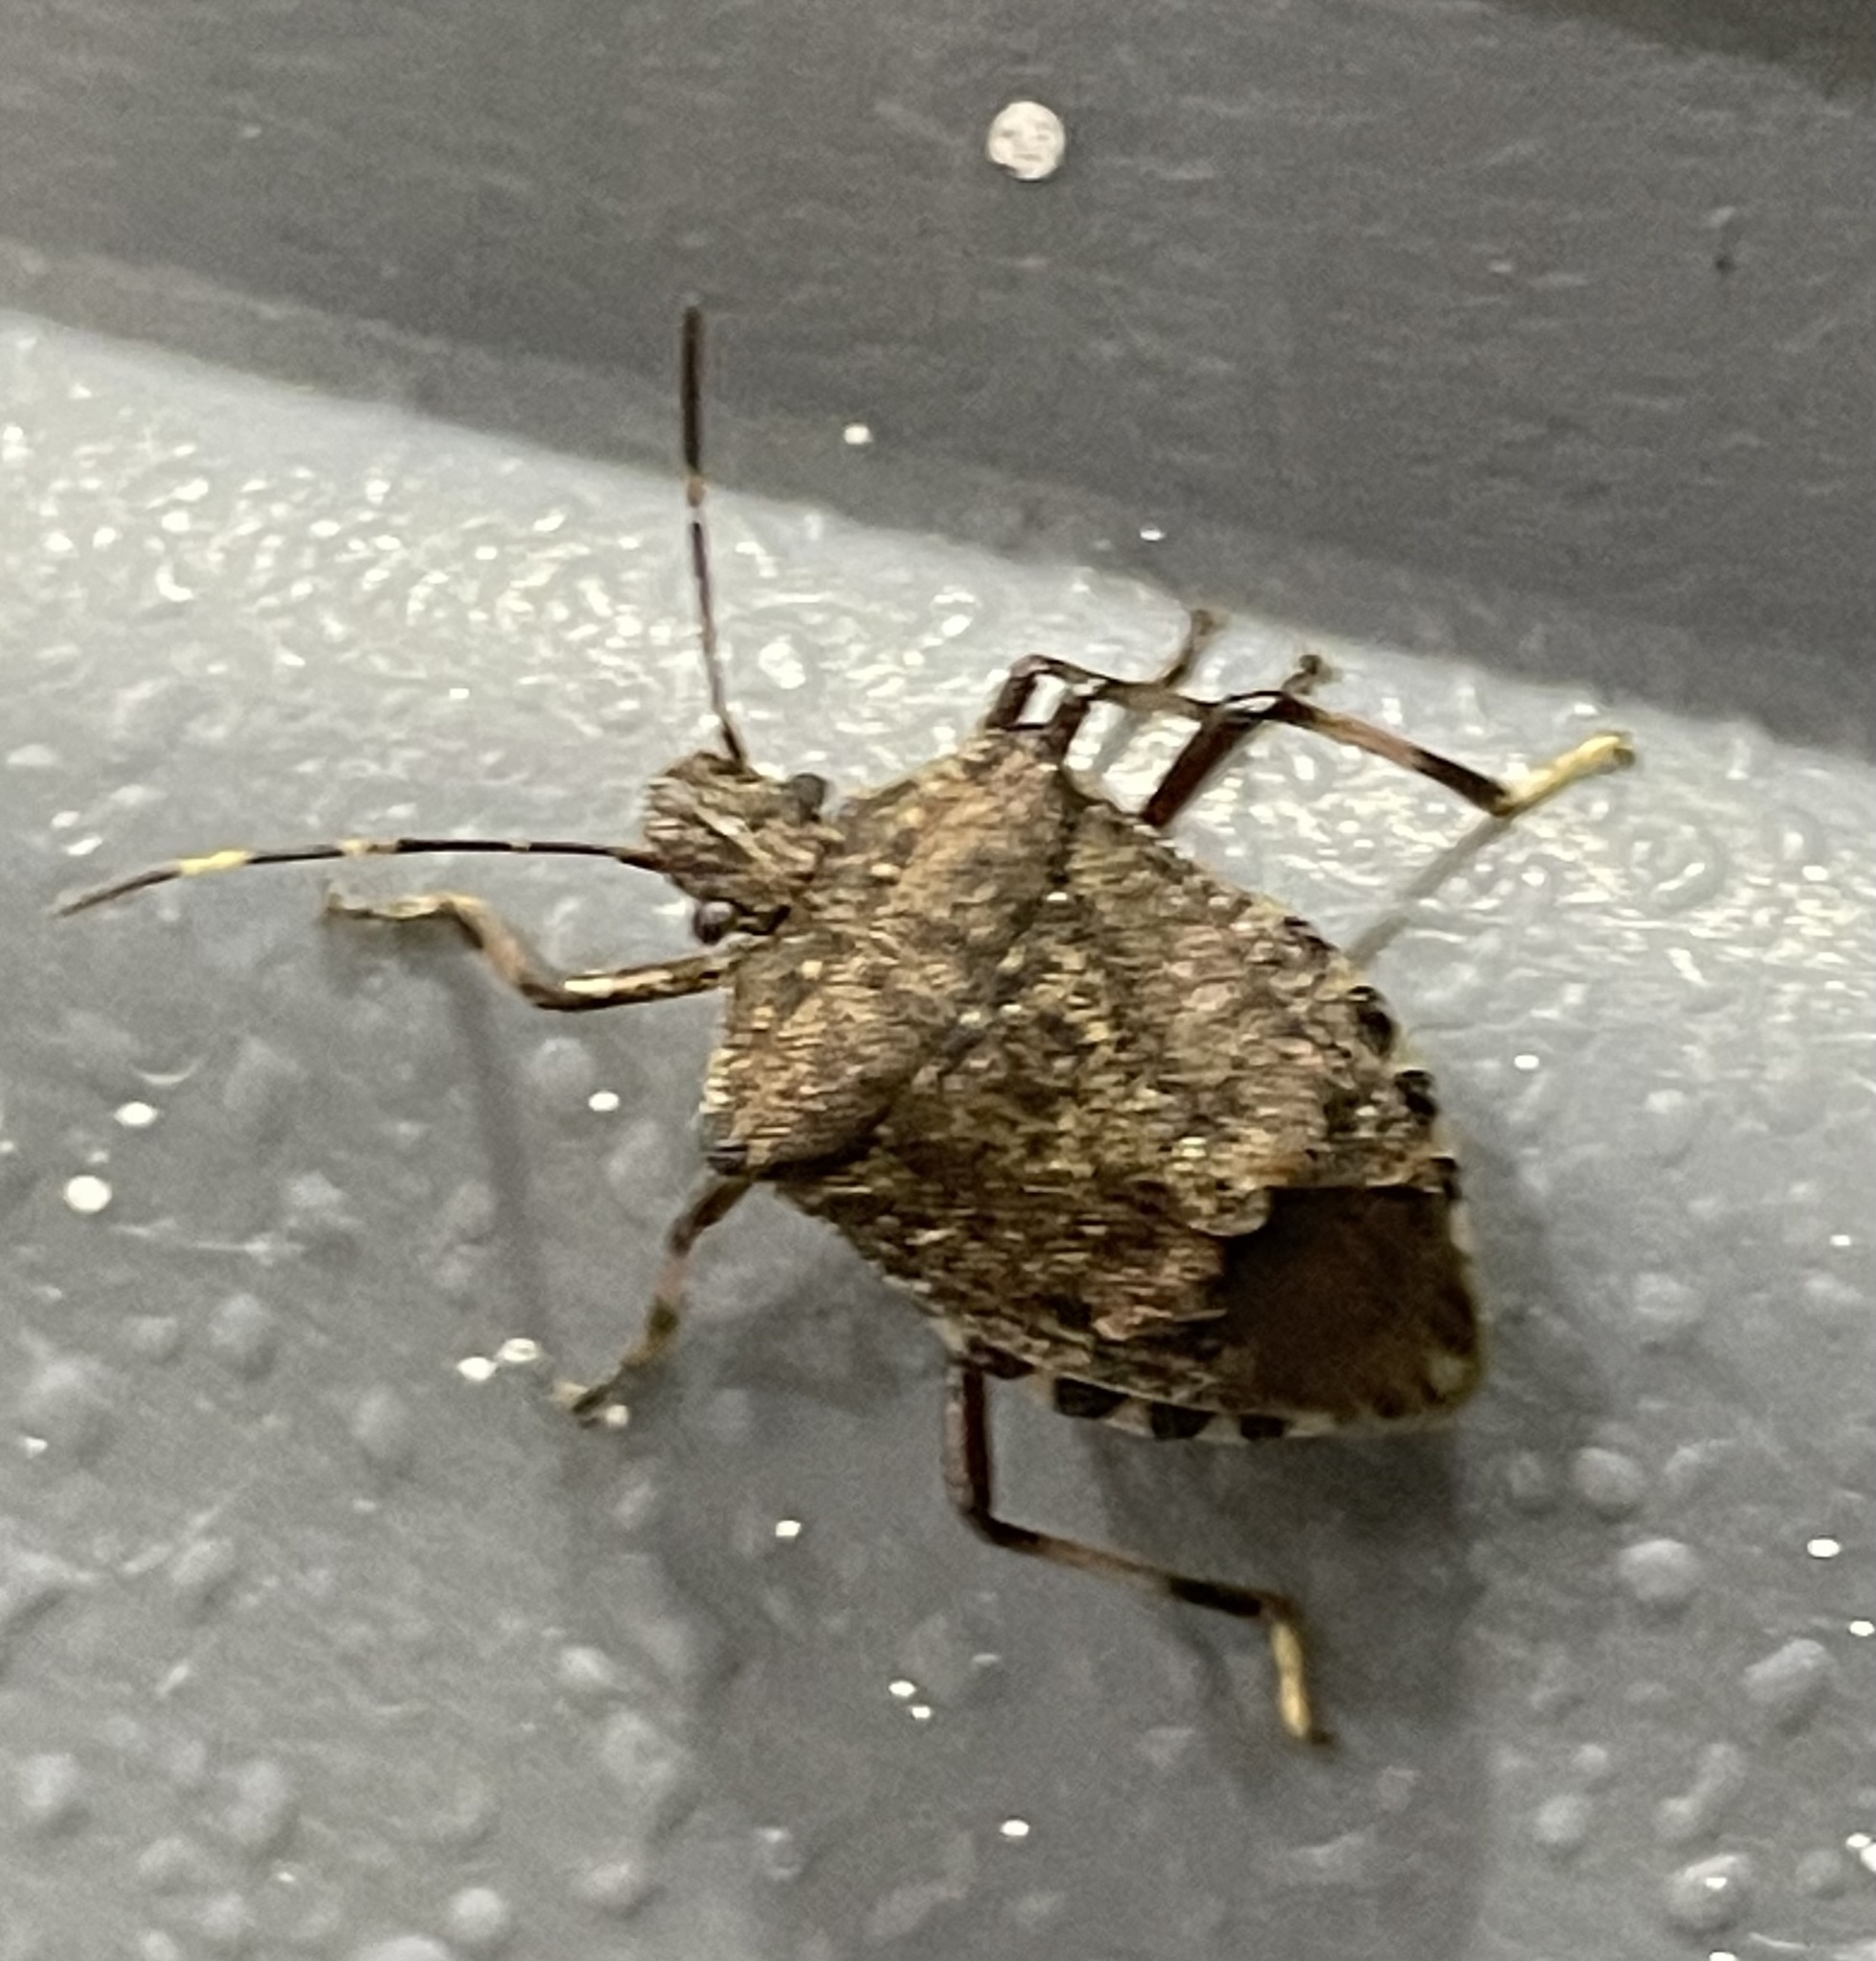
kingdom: Animalia
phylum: Arthropoda
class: Insecta
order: Hemiptera
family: Pentatomidae
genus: Halyomorpha
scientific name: Halyomorpha halys
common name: Brown marmorated stink bug
